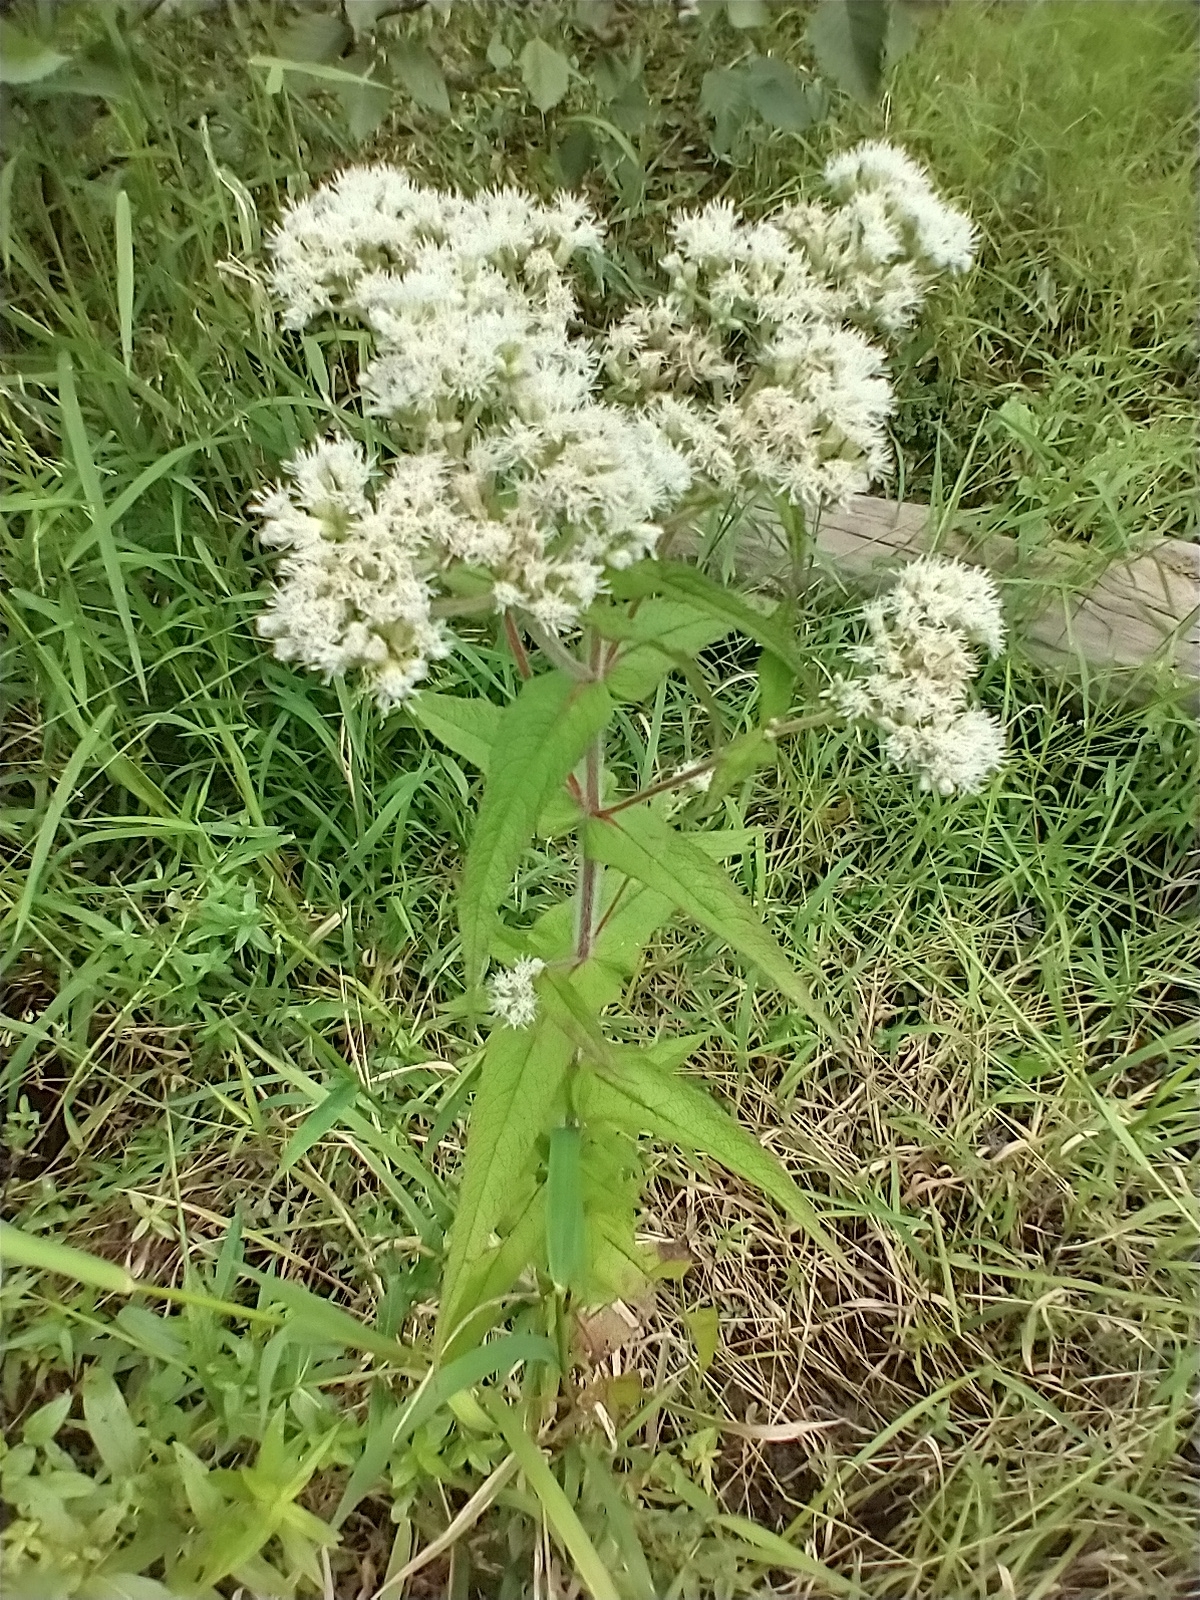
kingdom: Plantae
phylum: Tracheophyta
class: Magnoliopsida
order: Asterales
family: Asteraceae
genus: Eupatorium
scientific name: Eupatorium perfoliatum
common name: Boneset
